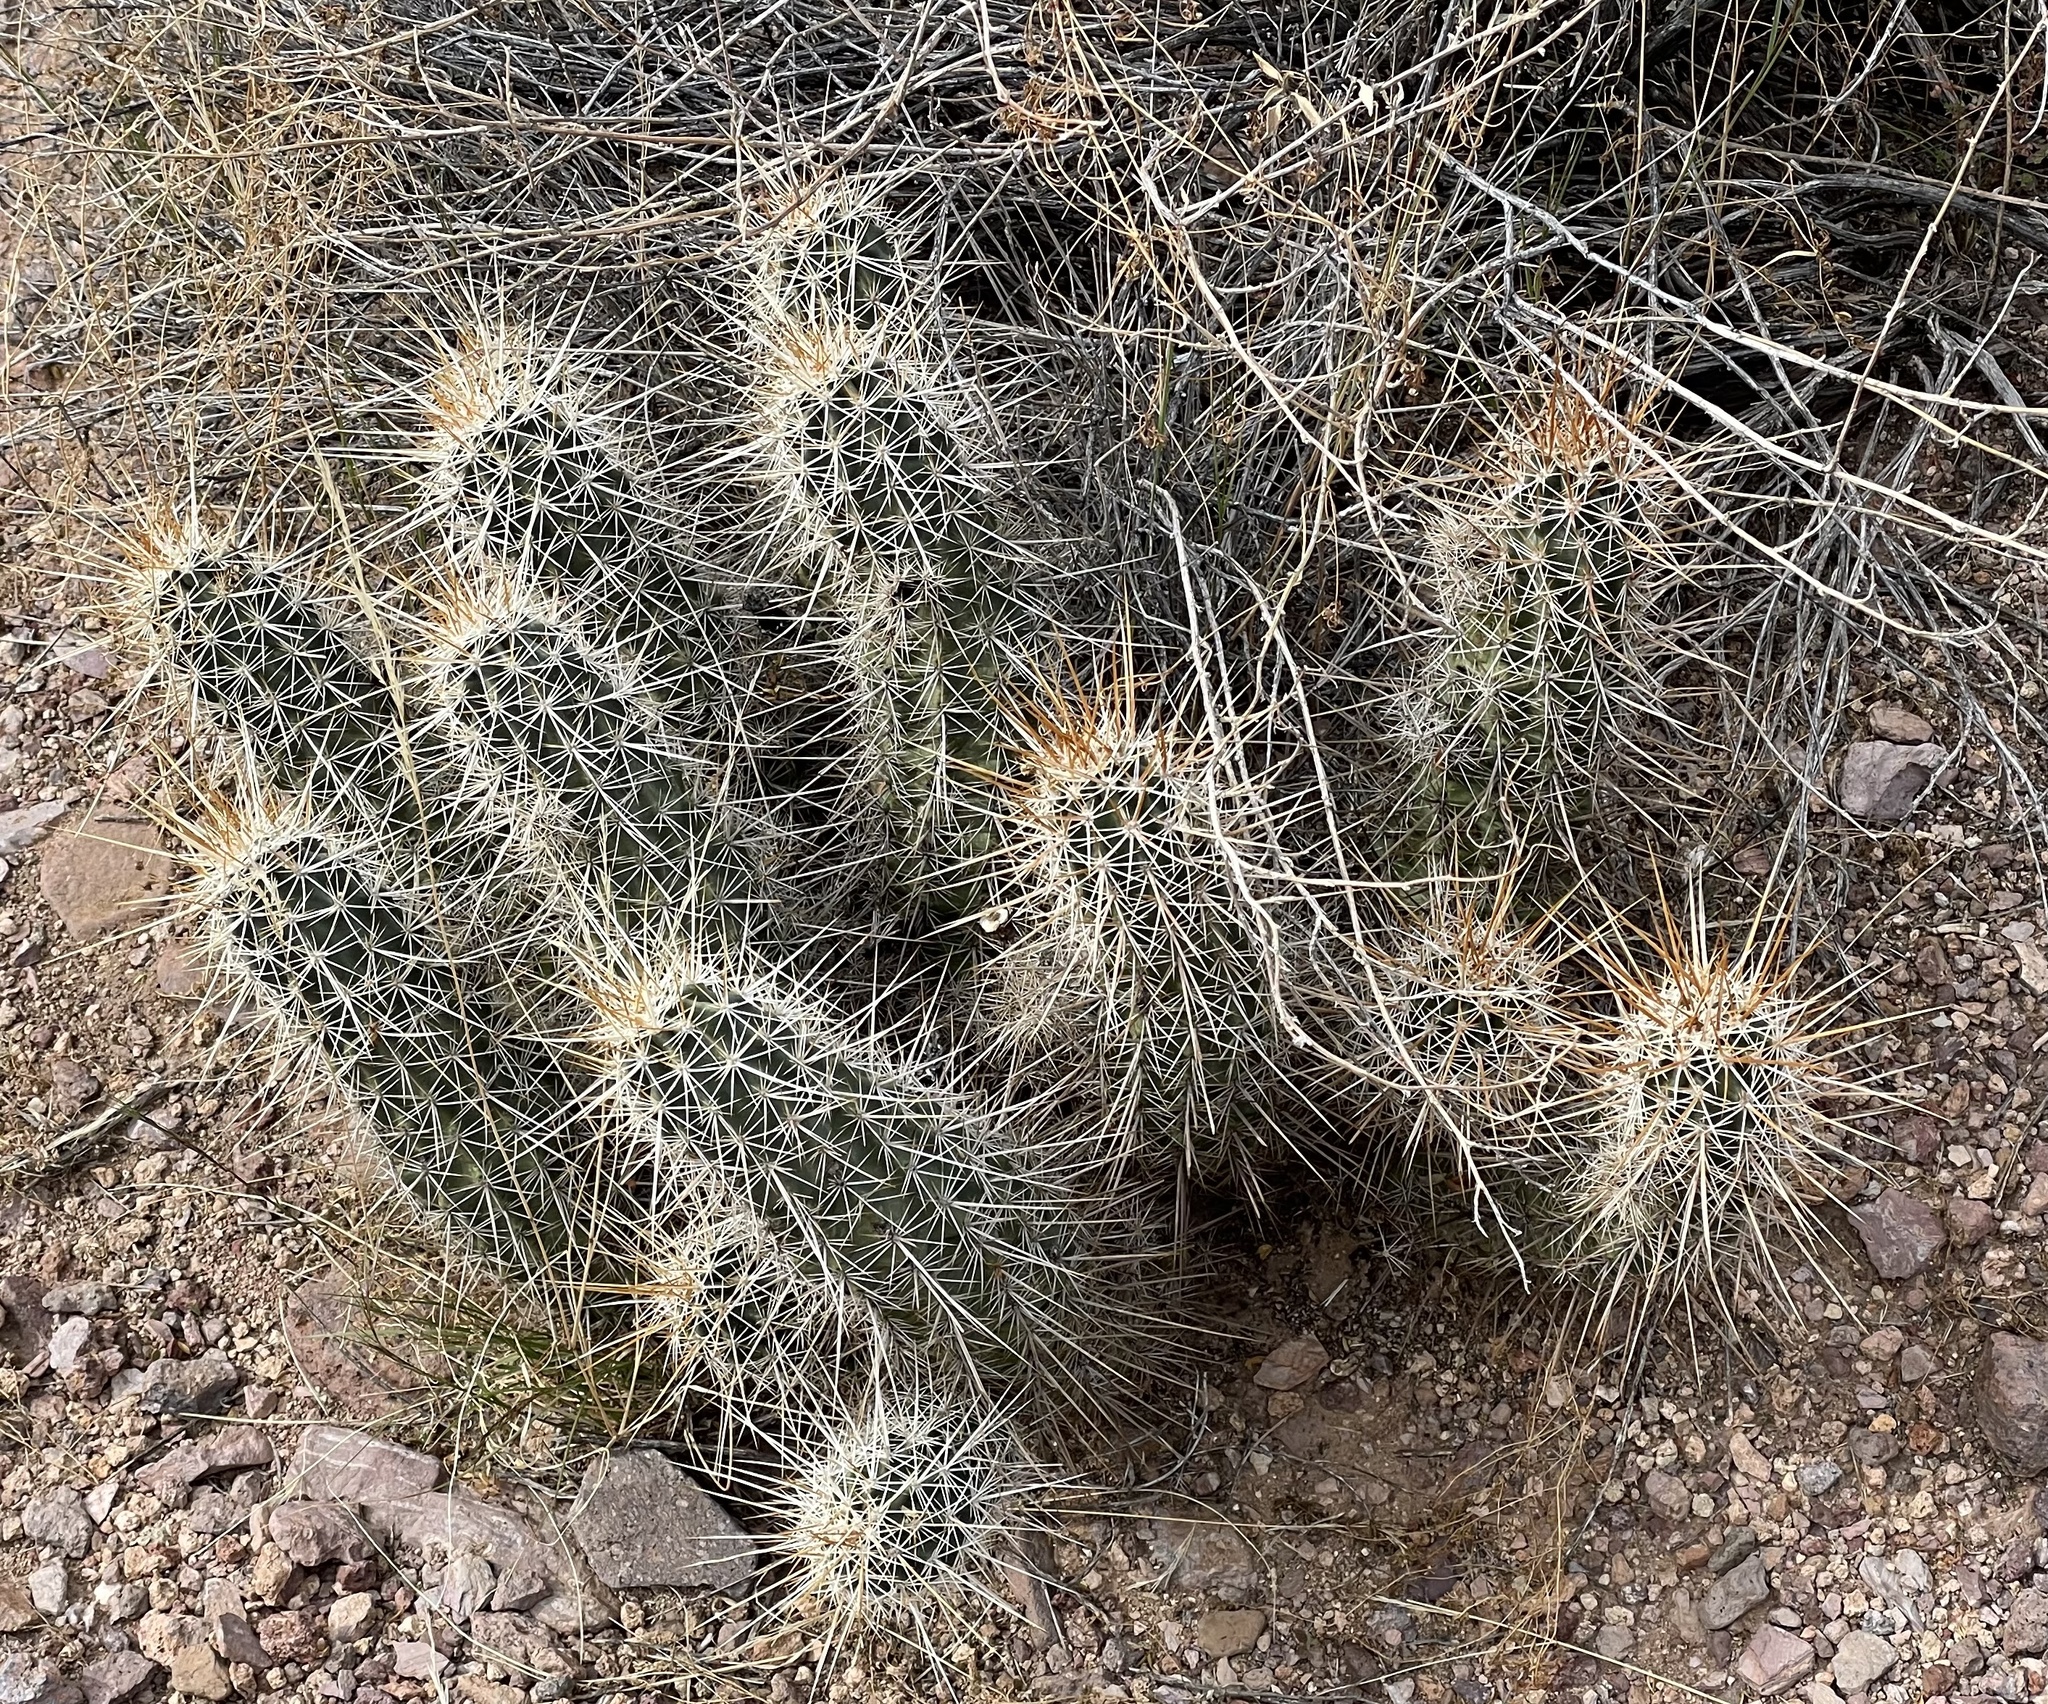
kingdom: Plantae
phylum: Tracheophyta
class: Magnoliopsida
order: Caryophyllales
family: Cactaceae
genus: Echinocereus
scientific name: Echinocereus engelmannii
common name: Engelmann's hedgehog cactus
